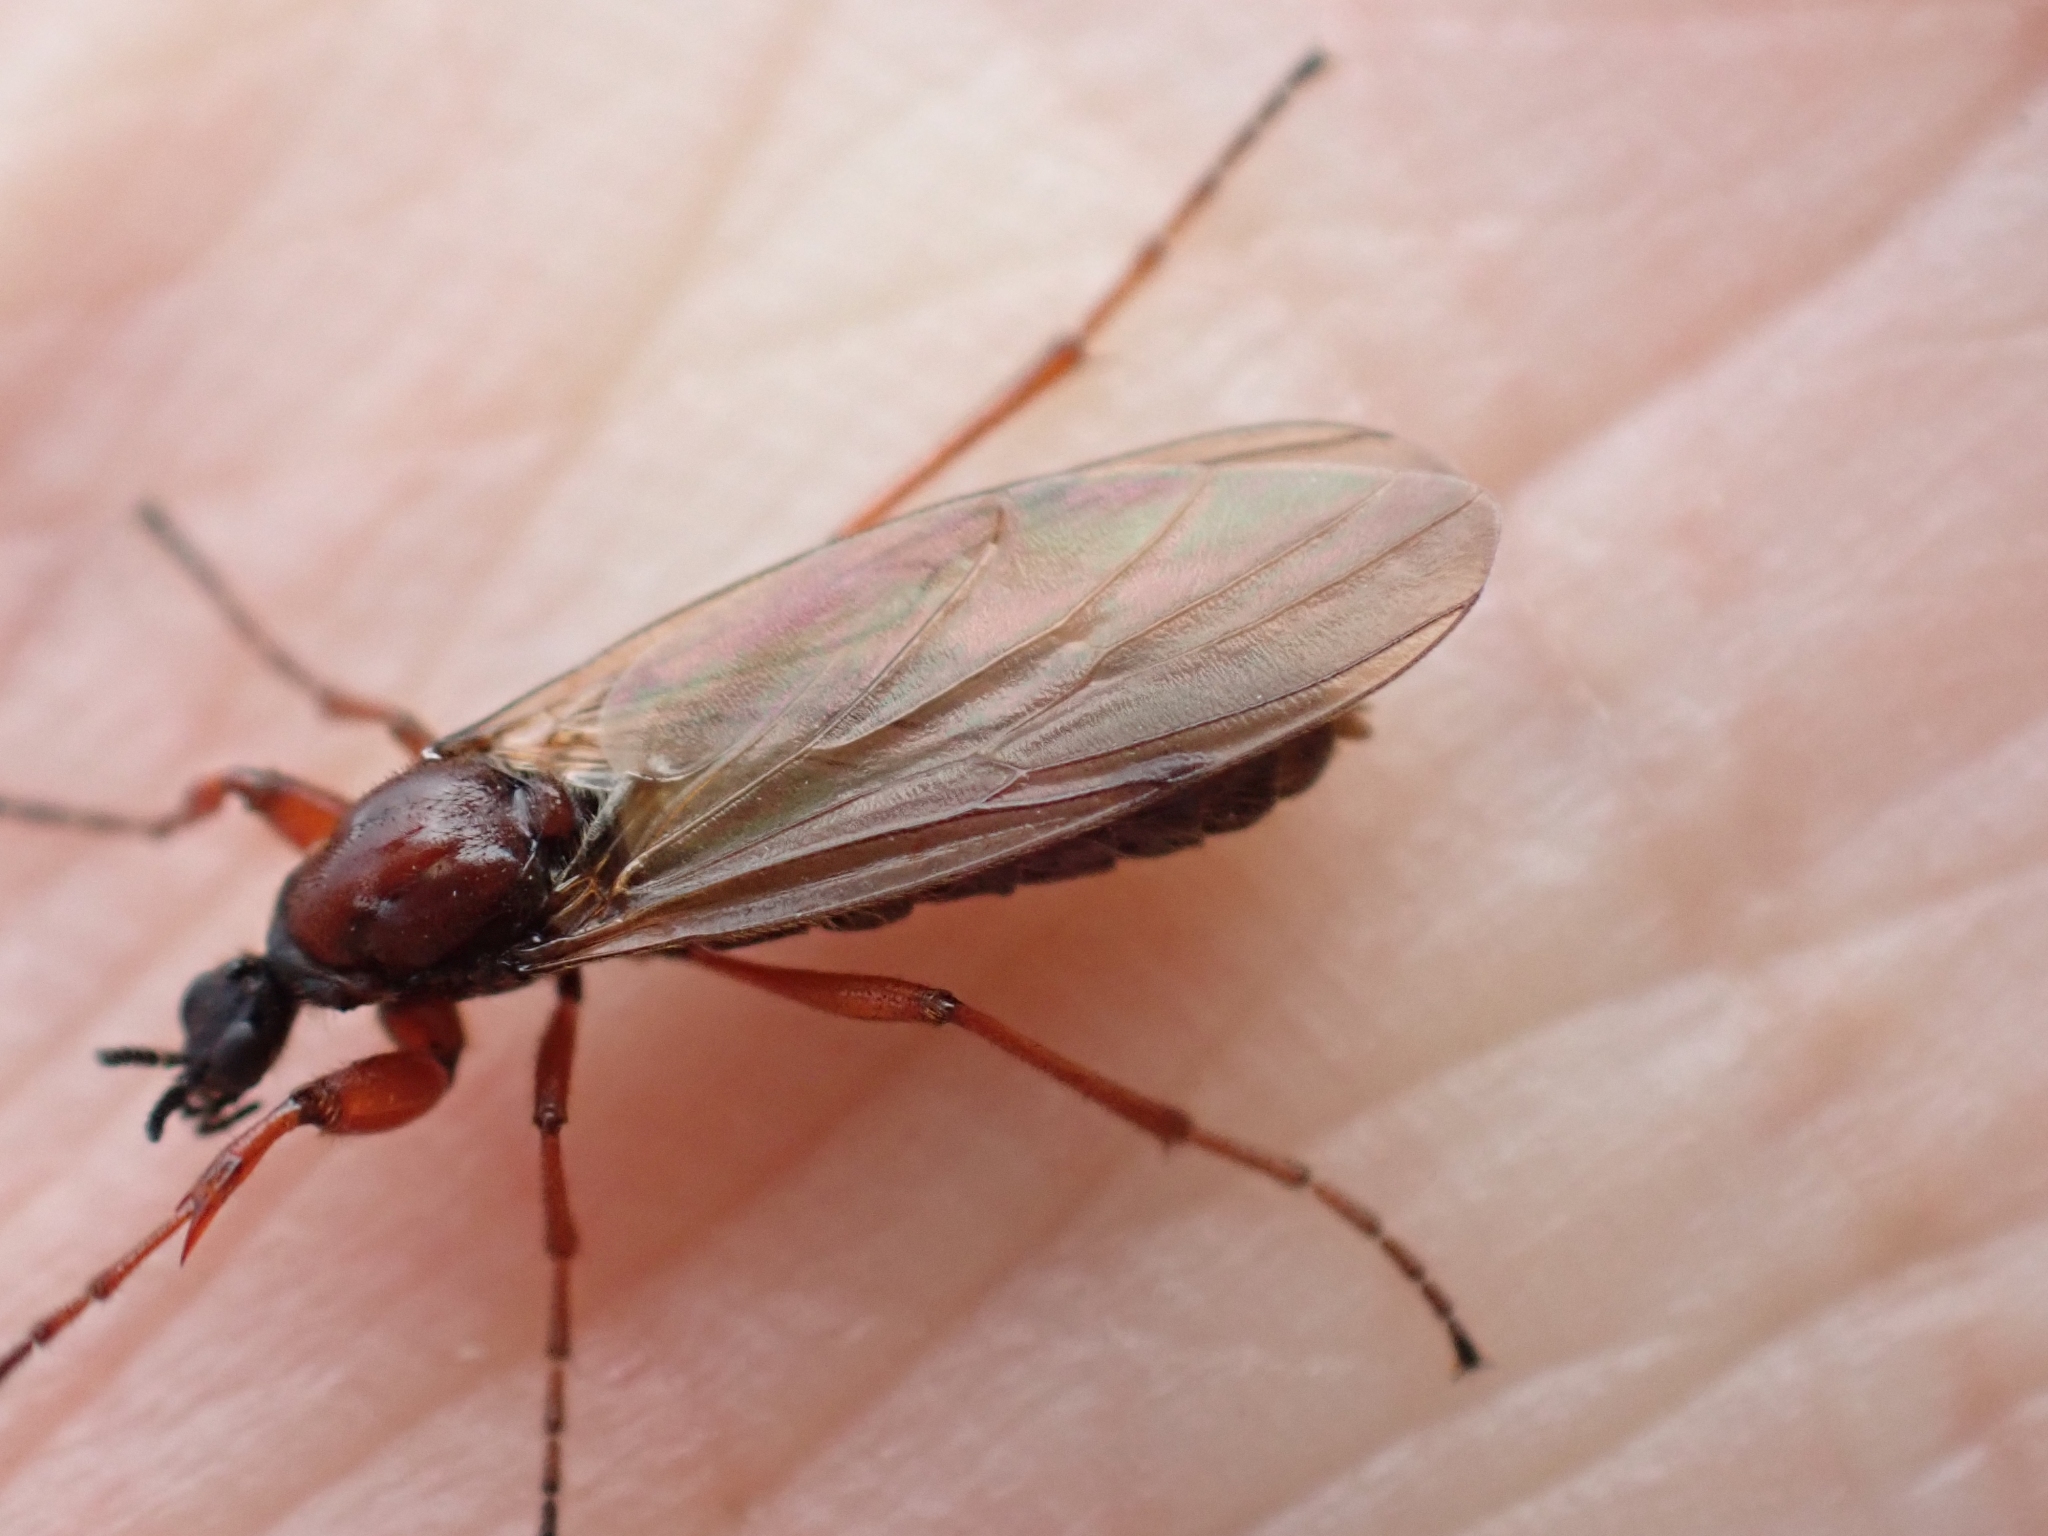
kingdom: Animalia
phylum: Arthropoda
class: Insecta
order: Diptera
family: Bibionidae
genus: Bibio
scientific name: Bibio brunnipes
